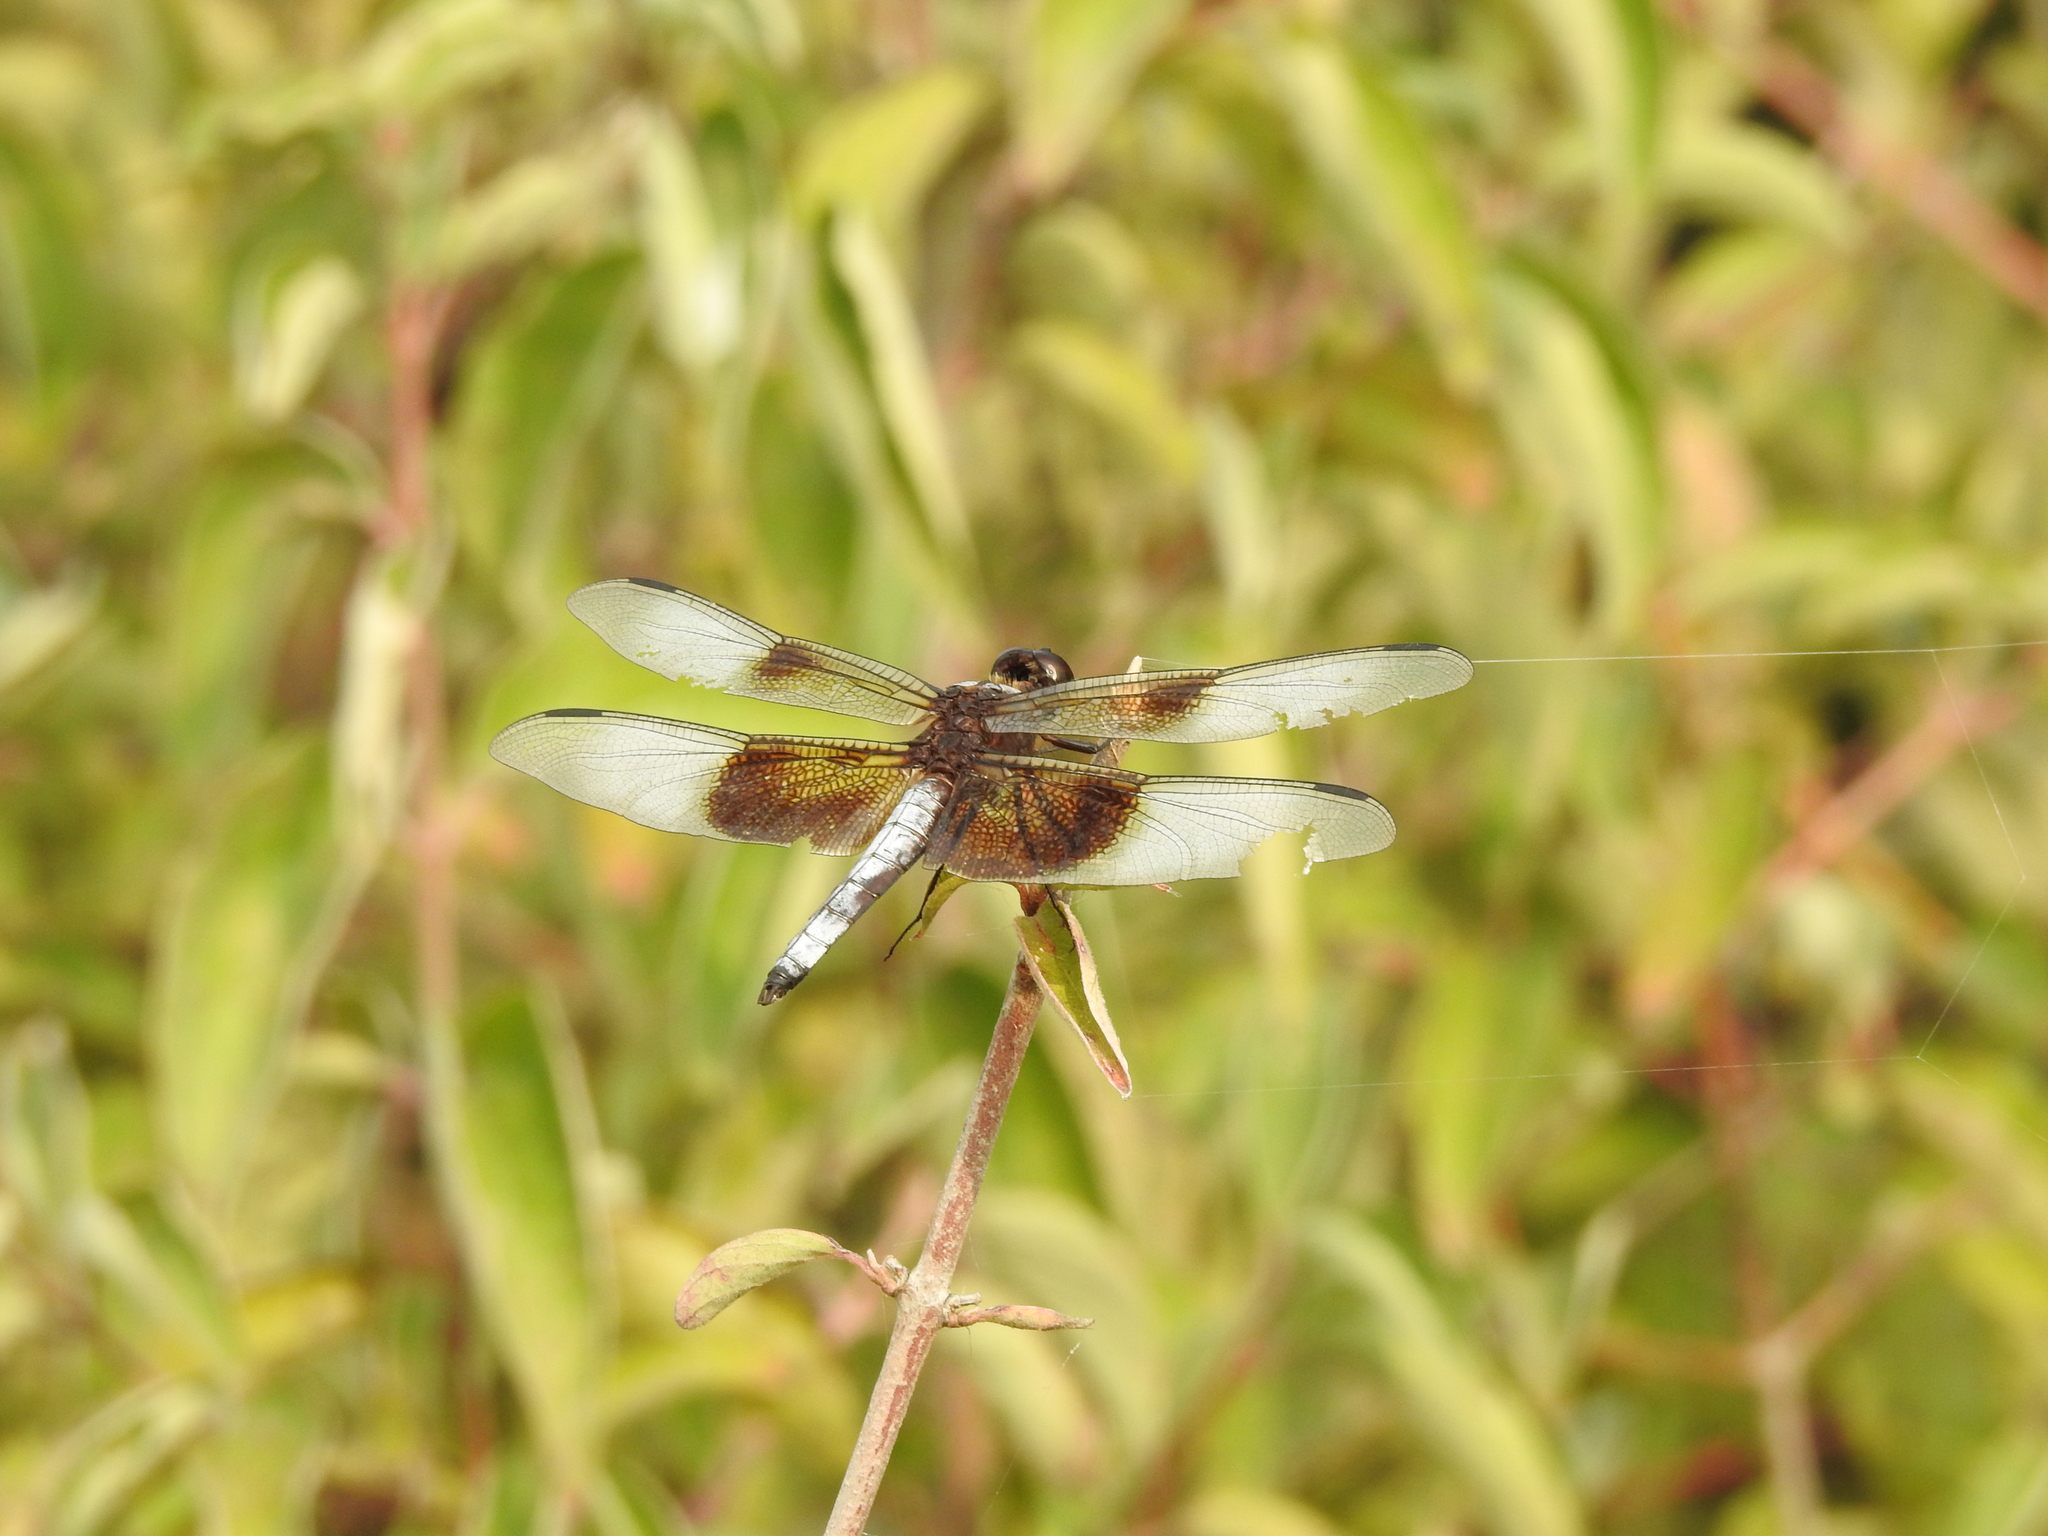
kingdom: Animalia
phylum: Arthropoda
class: Insecta
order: Odonata
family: Libellulidae
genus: Libellula
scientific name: Libellula luctuosa
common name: Widow skimmer
